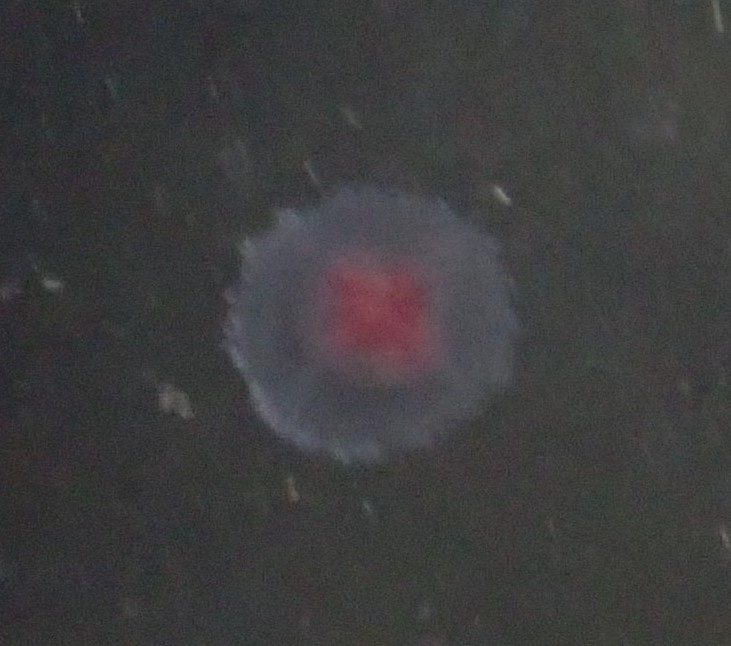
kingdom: Animalia
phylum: Cnidaria
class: Hydrozoa
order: Anthoathecata
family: Oceaniidae
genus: Turritopsis
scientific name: Turritopsis rubra
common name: Crimson jelly
